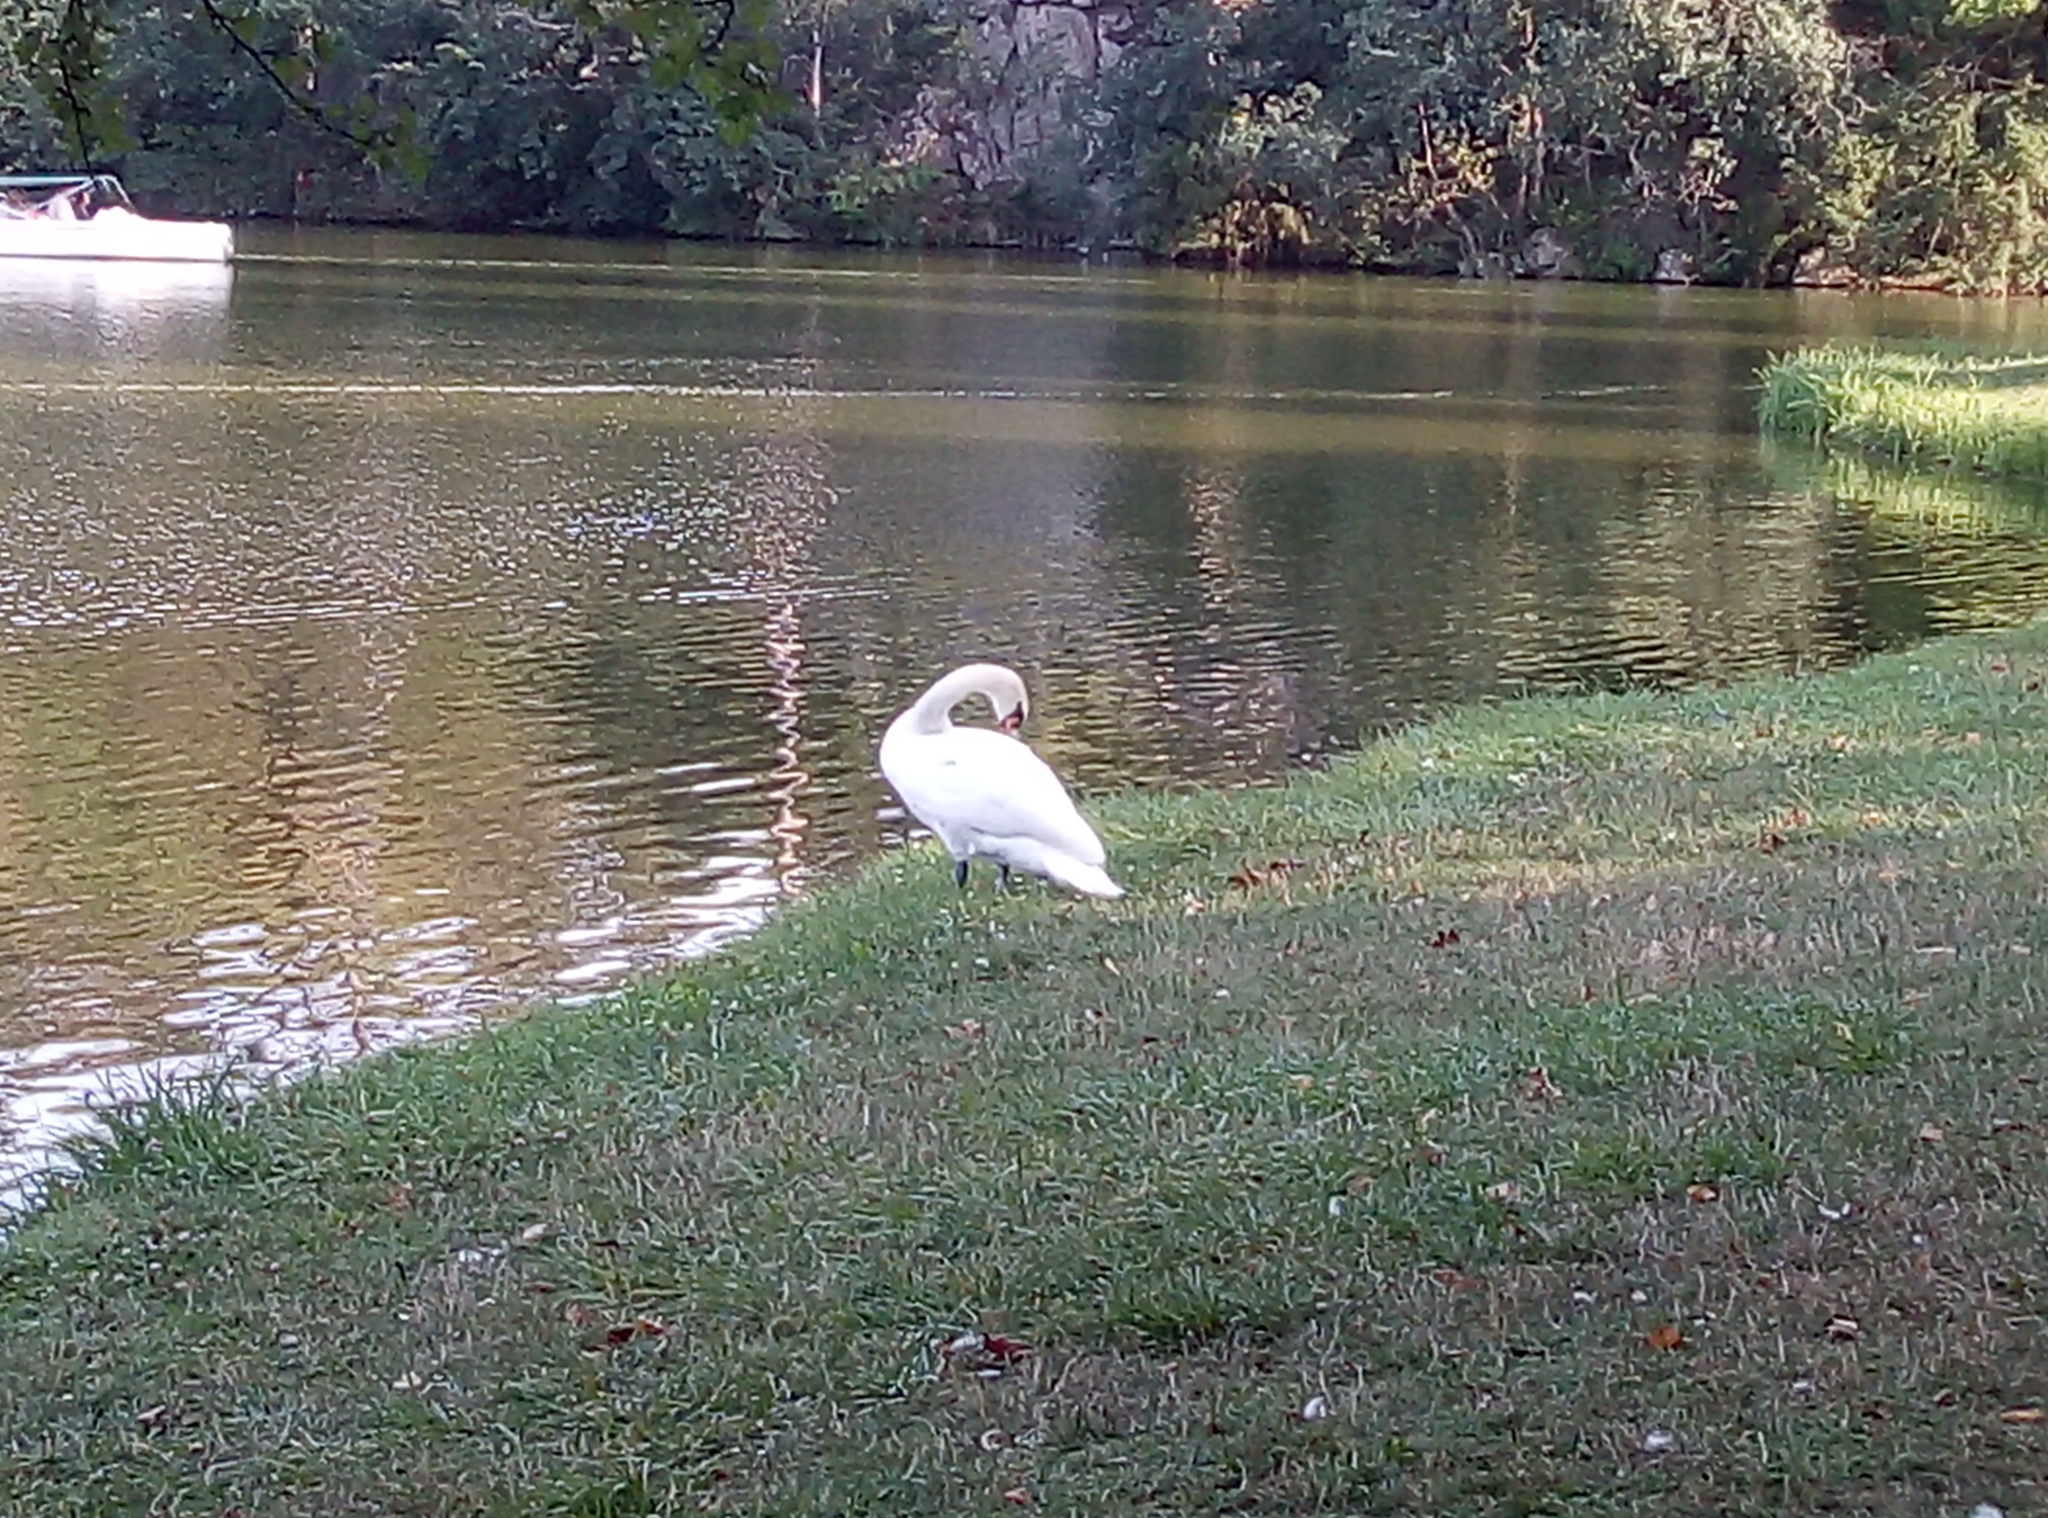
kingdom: Animalia
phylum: Chordata
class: Aves
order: Anseriformes
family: Anatidae
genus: Cygnus
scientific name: Cygnus olor
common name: Mute swan
